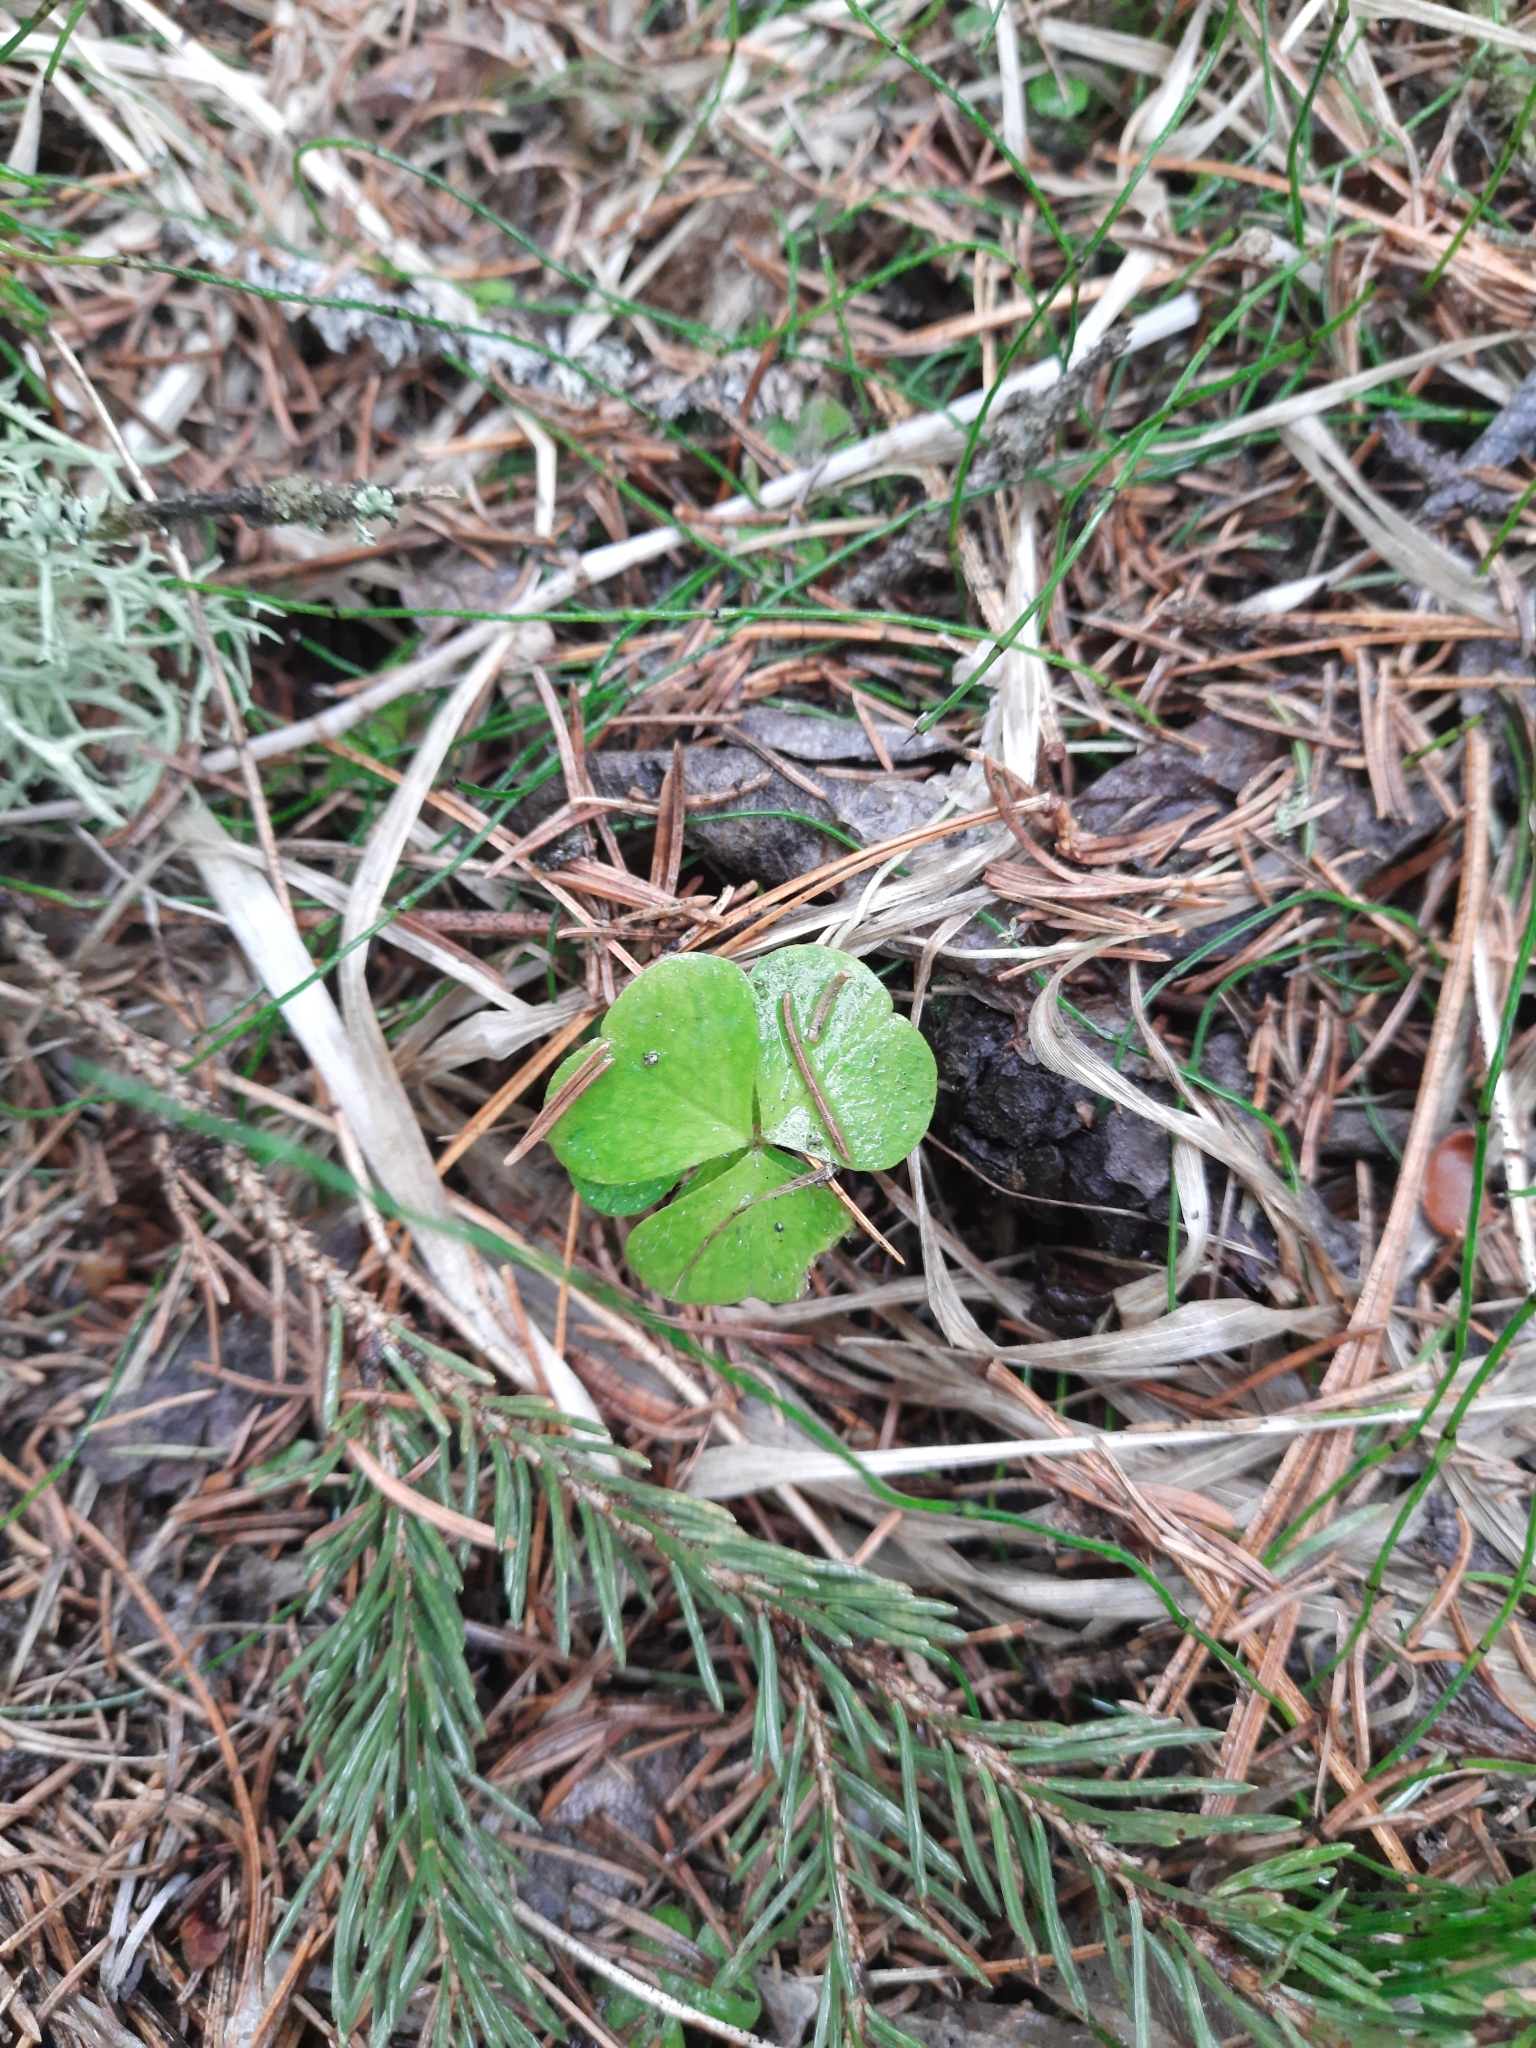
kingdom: Plantae
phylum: Tracheophyta
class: Magnoliopsida
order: Oxalidales
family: Oxalidaceae
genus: Oxalis
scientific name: Oxalis acetosella
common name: Wood-sorrel
